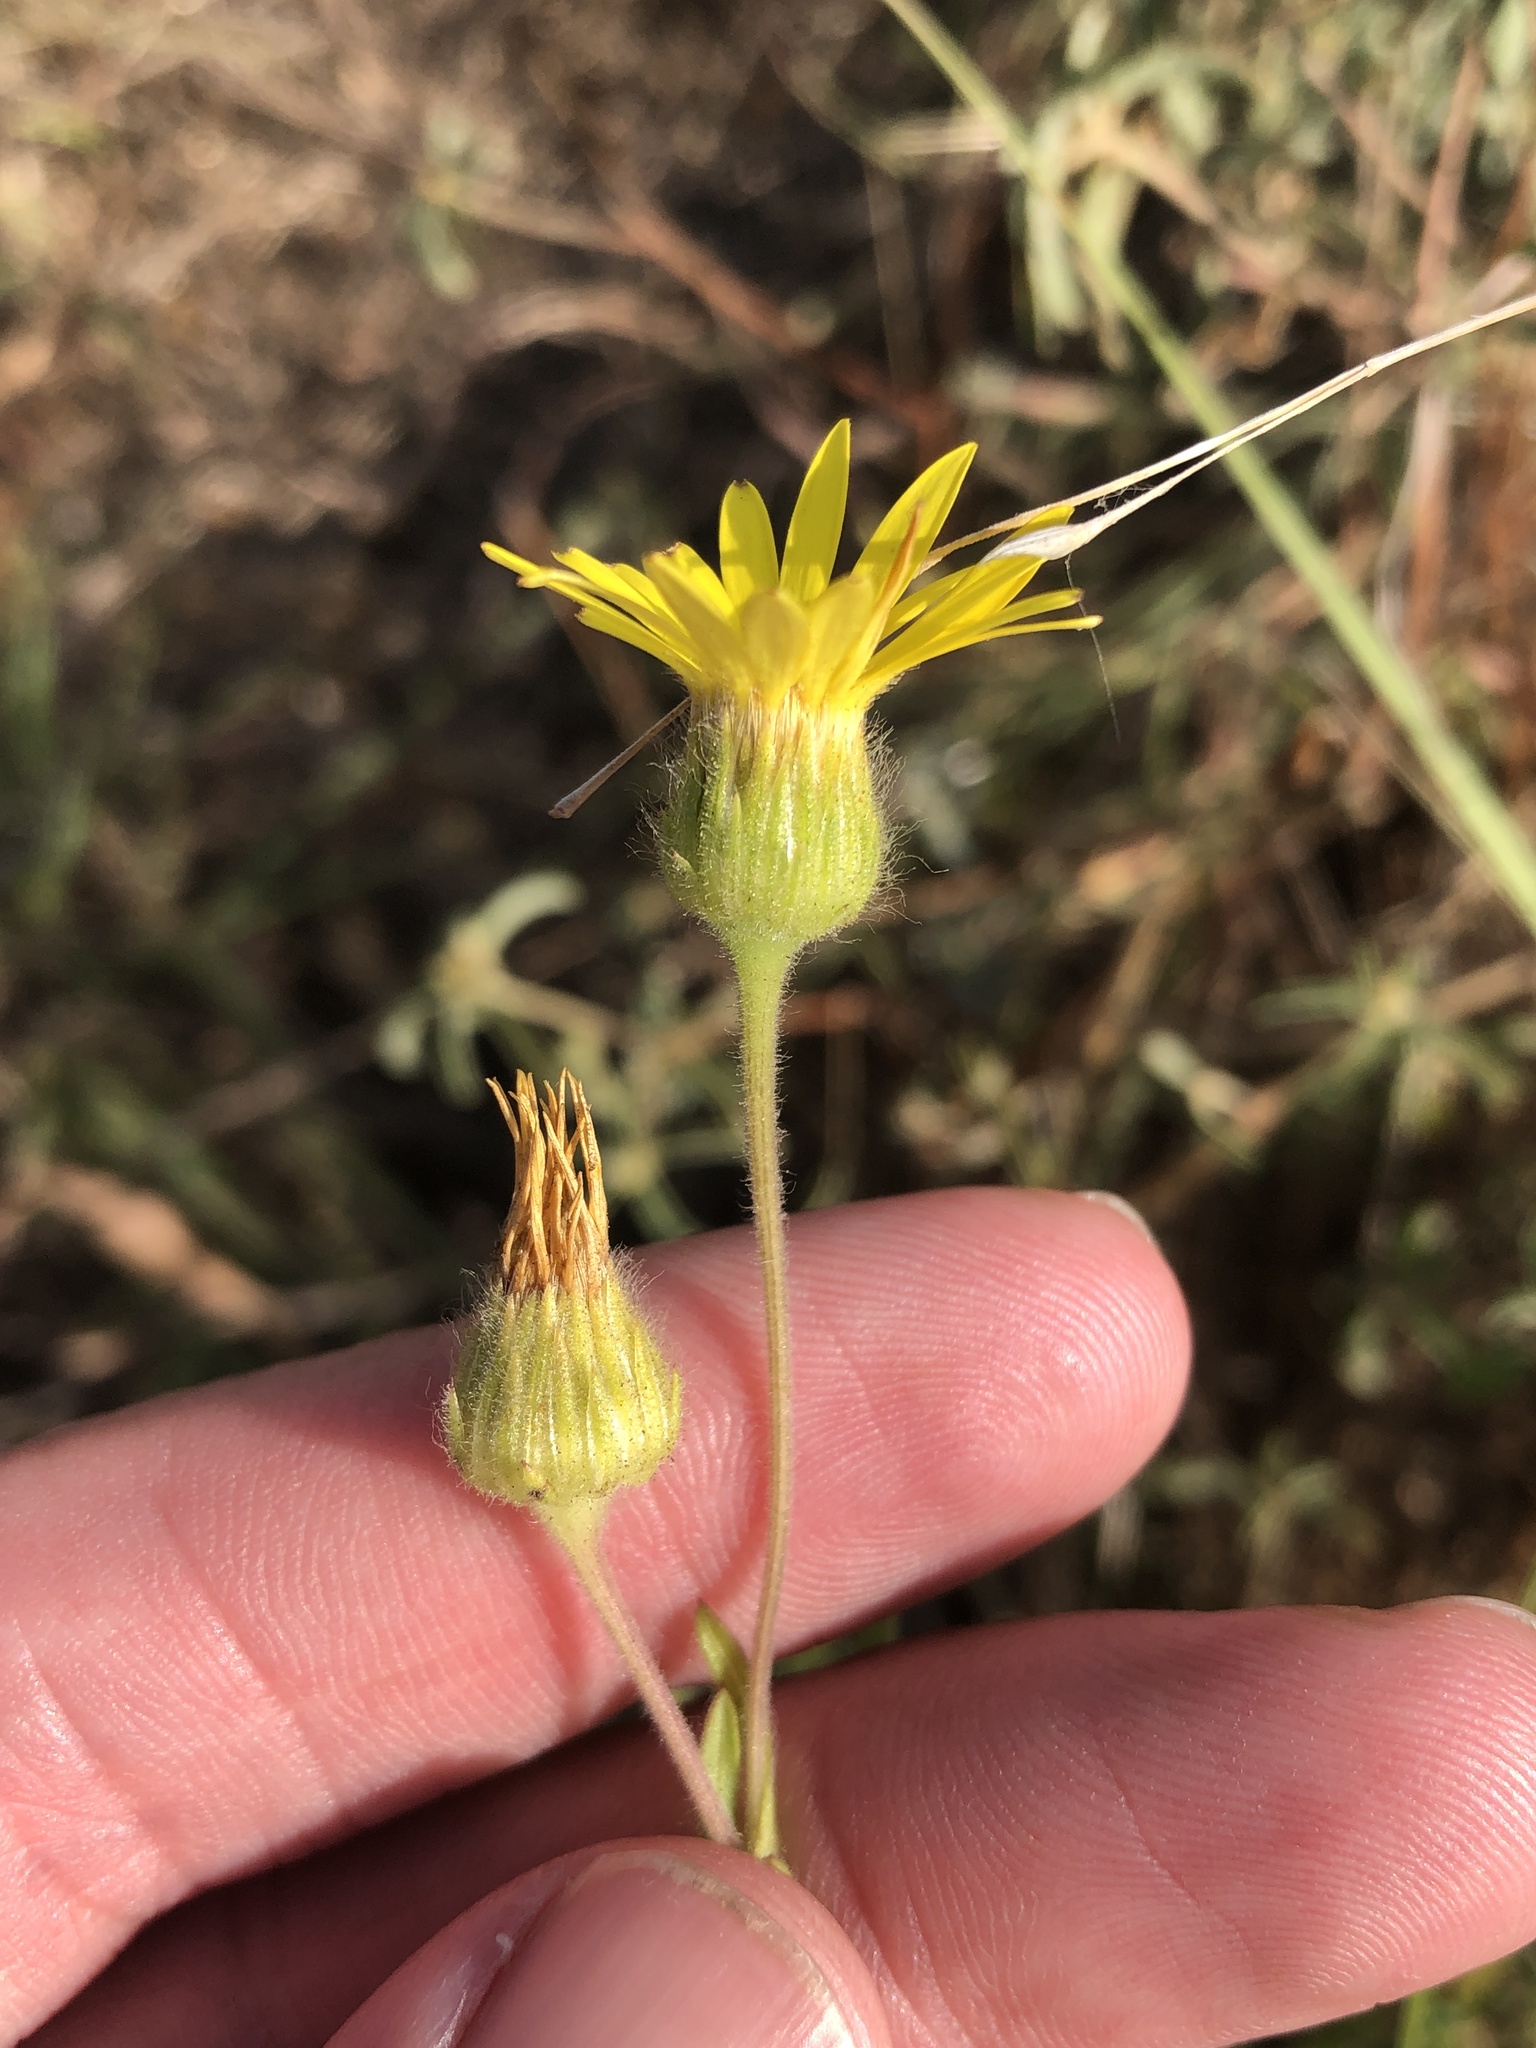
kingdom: Plantae
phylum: Tracheophyta
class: Magnoliopsida
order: Asterales
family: Asteraceae
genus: Bradburia
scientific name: Bradburia pilosa
